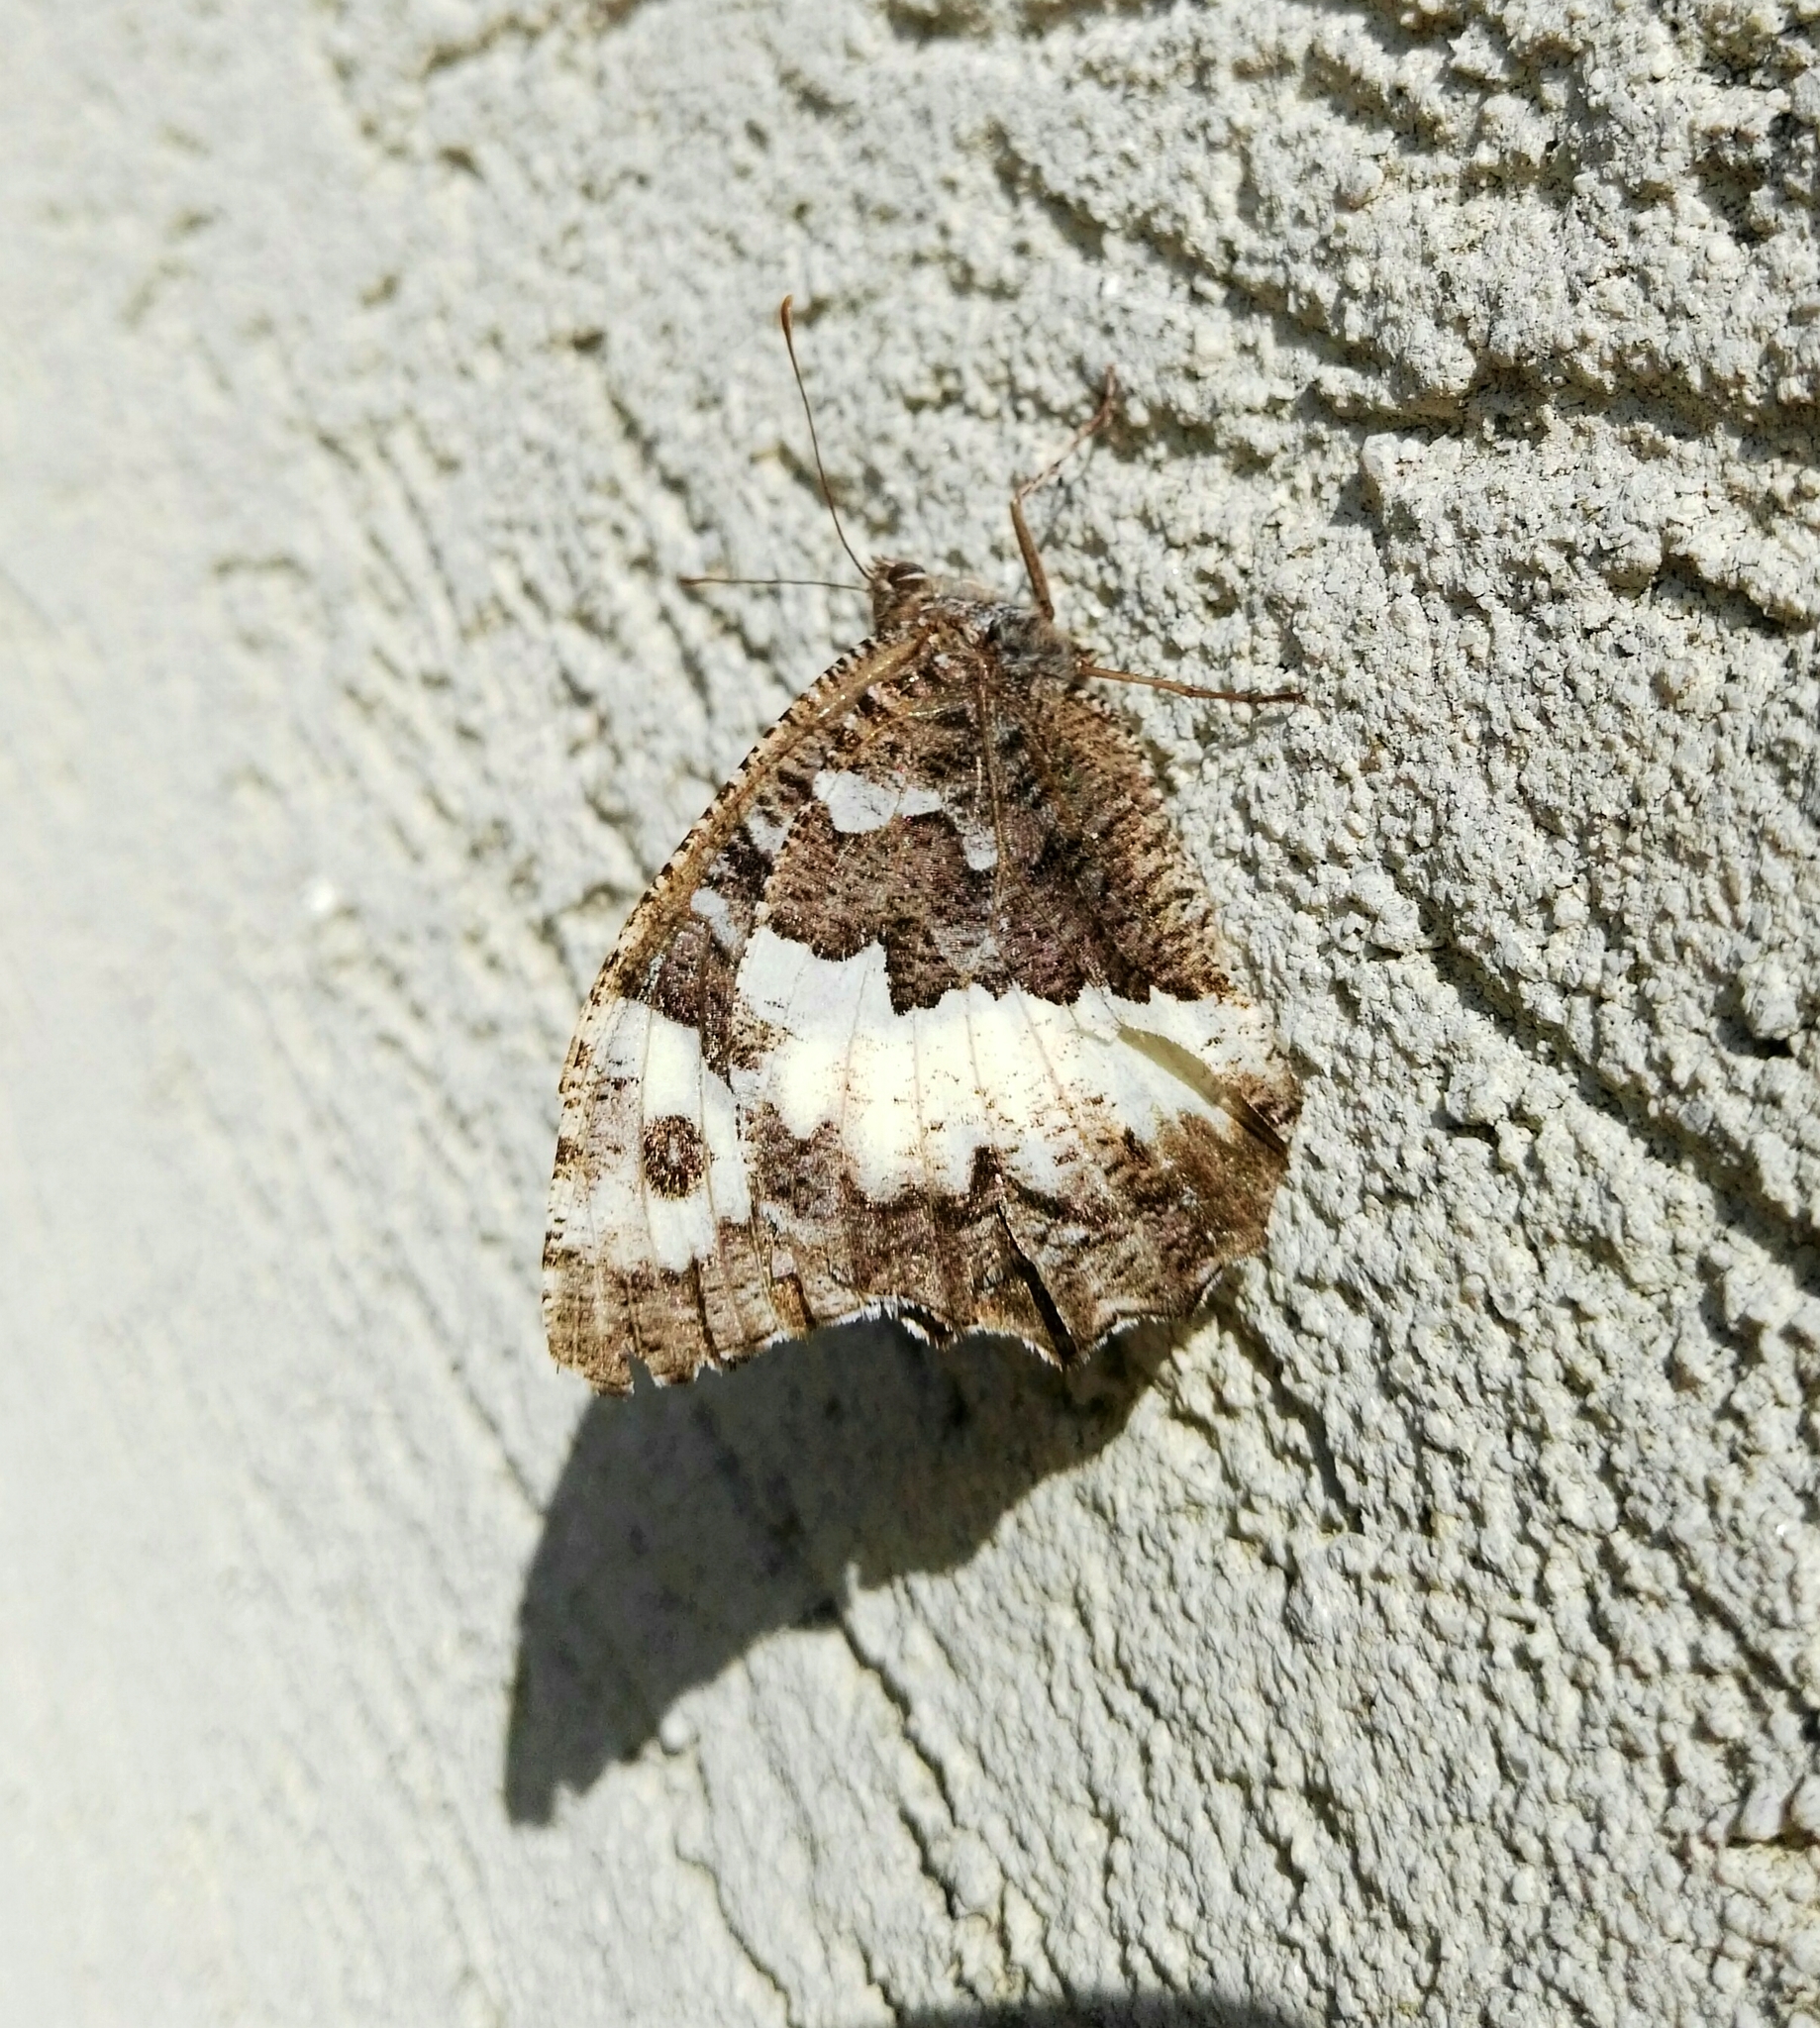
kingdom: Animalia
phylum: Arthropoda
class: Insecta
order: Lepidoptera
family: Lycaenidae
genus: Loweia
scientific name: Loweia tityrus
